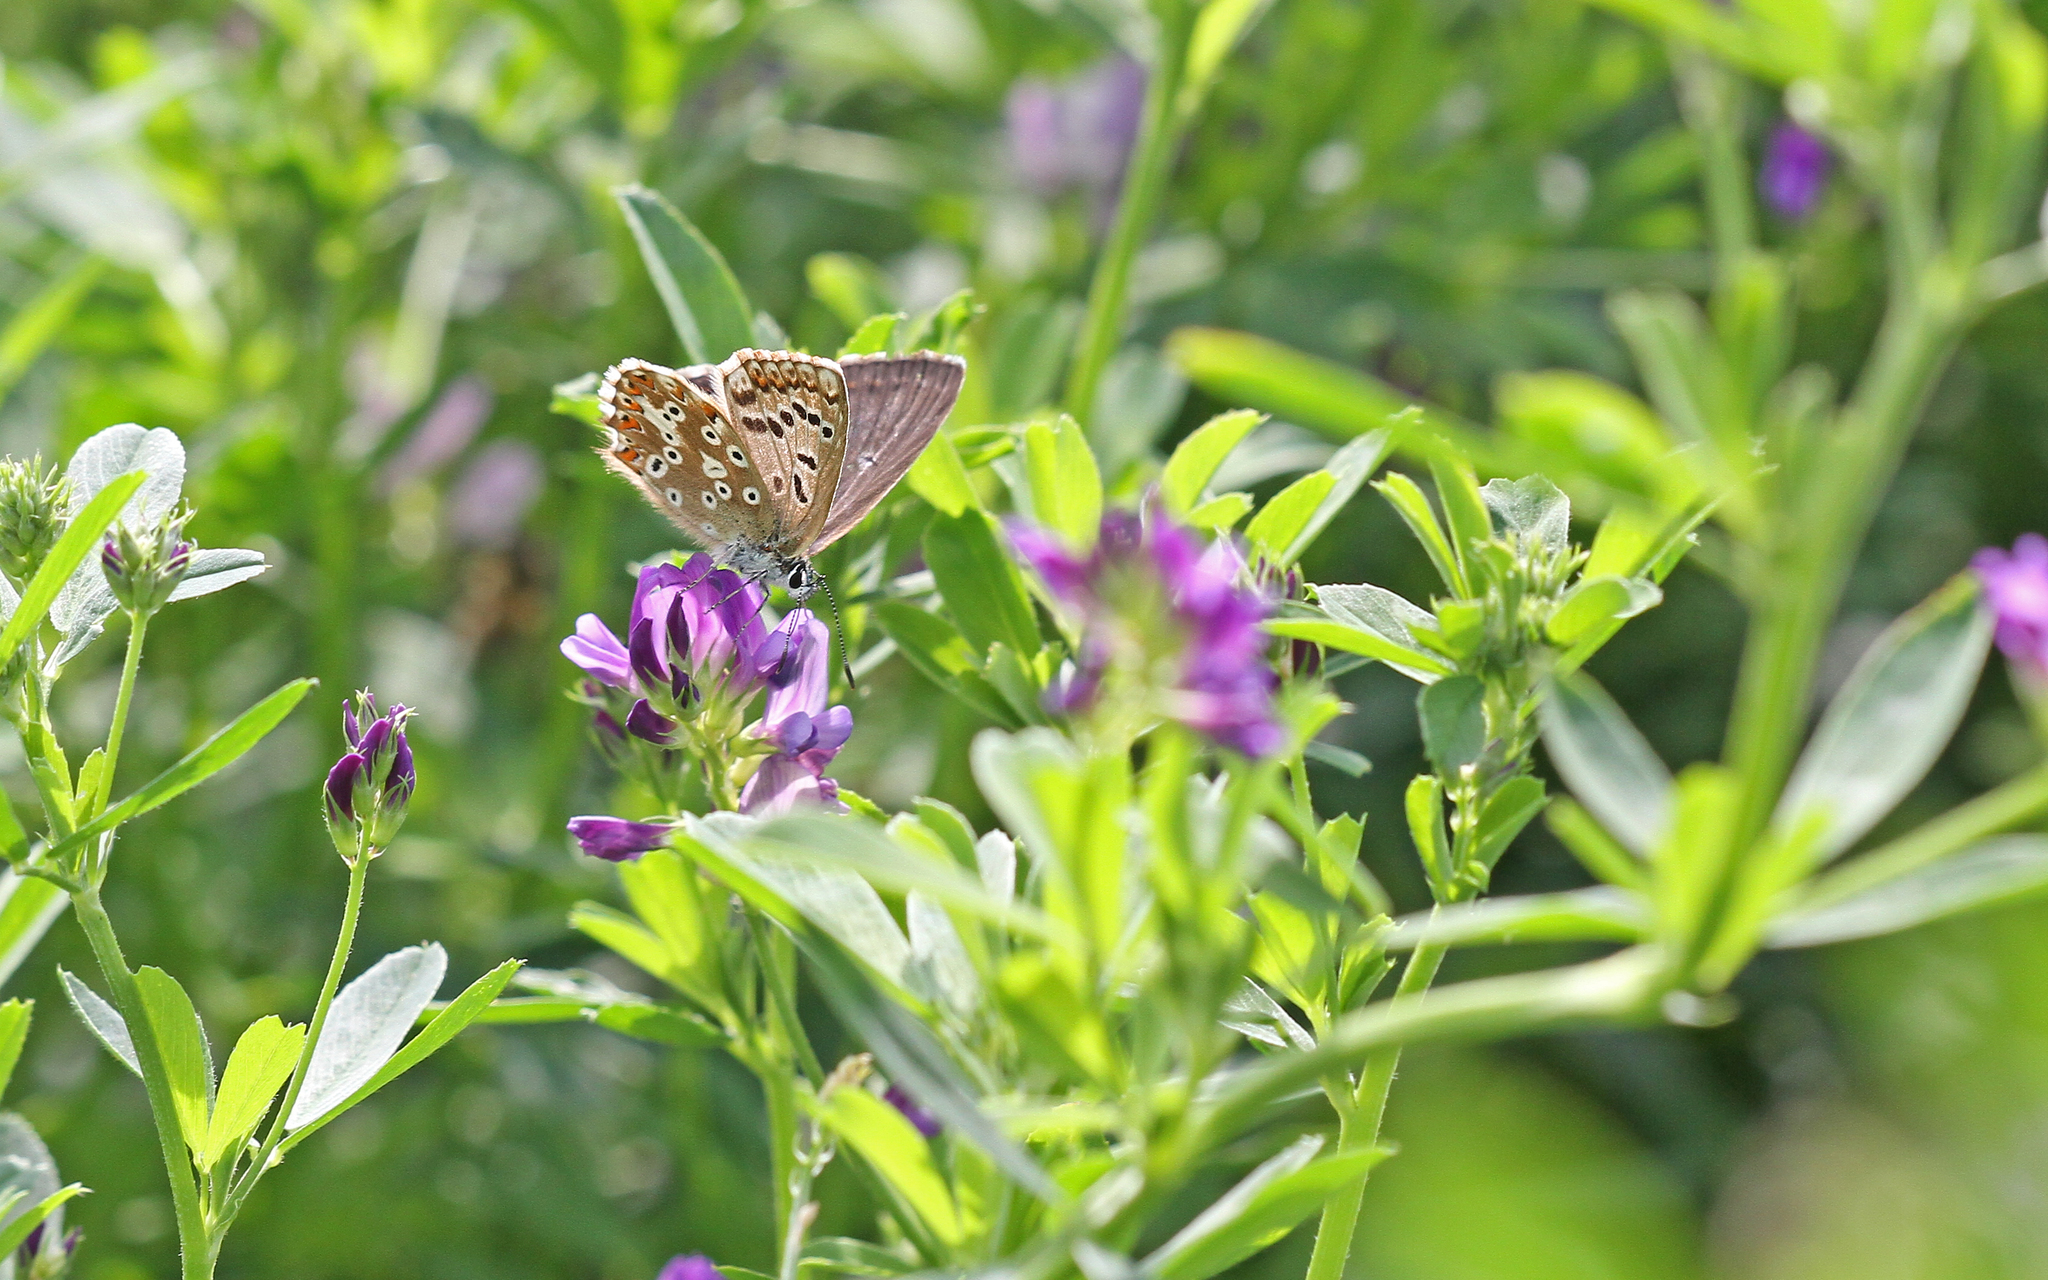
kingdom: Animalia
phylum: Arthropoda
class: Insecta
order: Lepidoptera
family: Lycaenidae
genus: Lysandra
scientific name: Lysandra coridon
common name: Chalkhill blue
